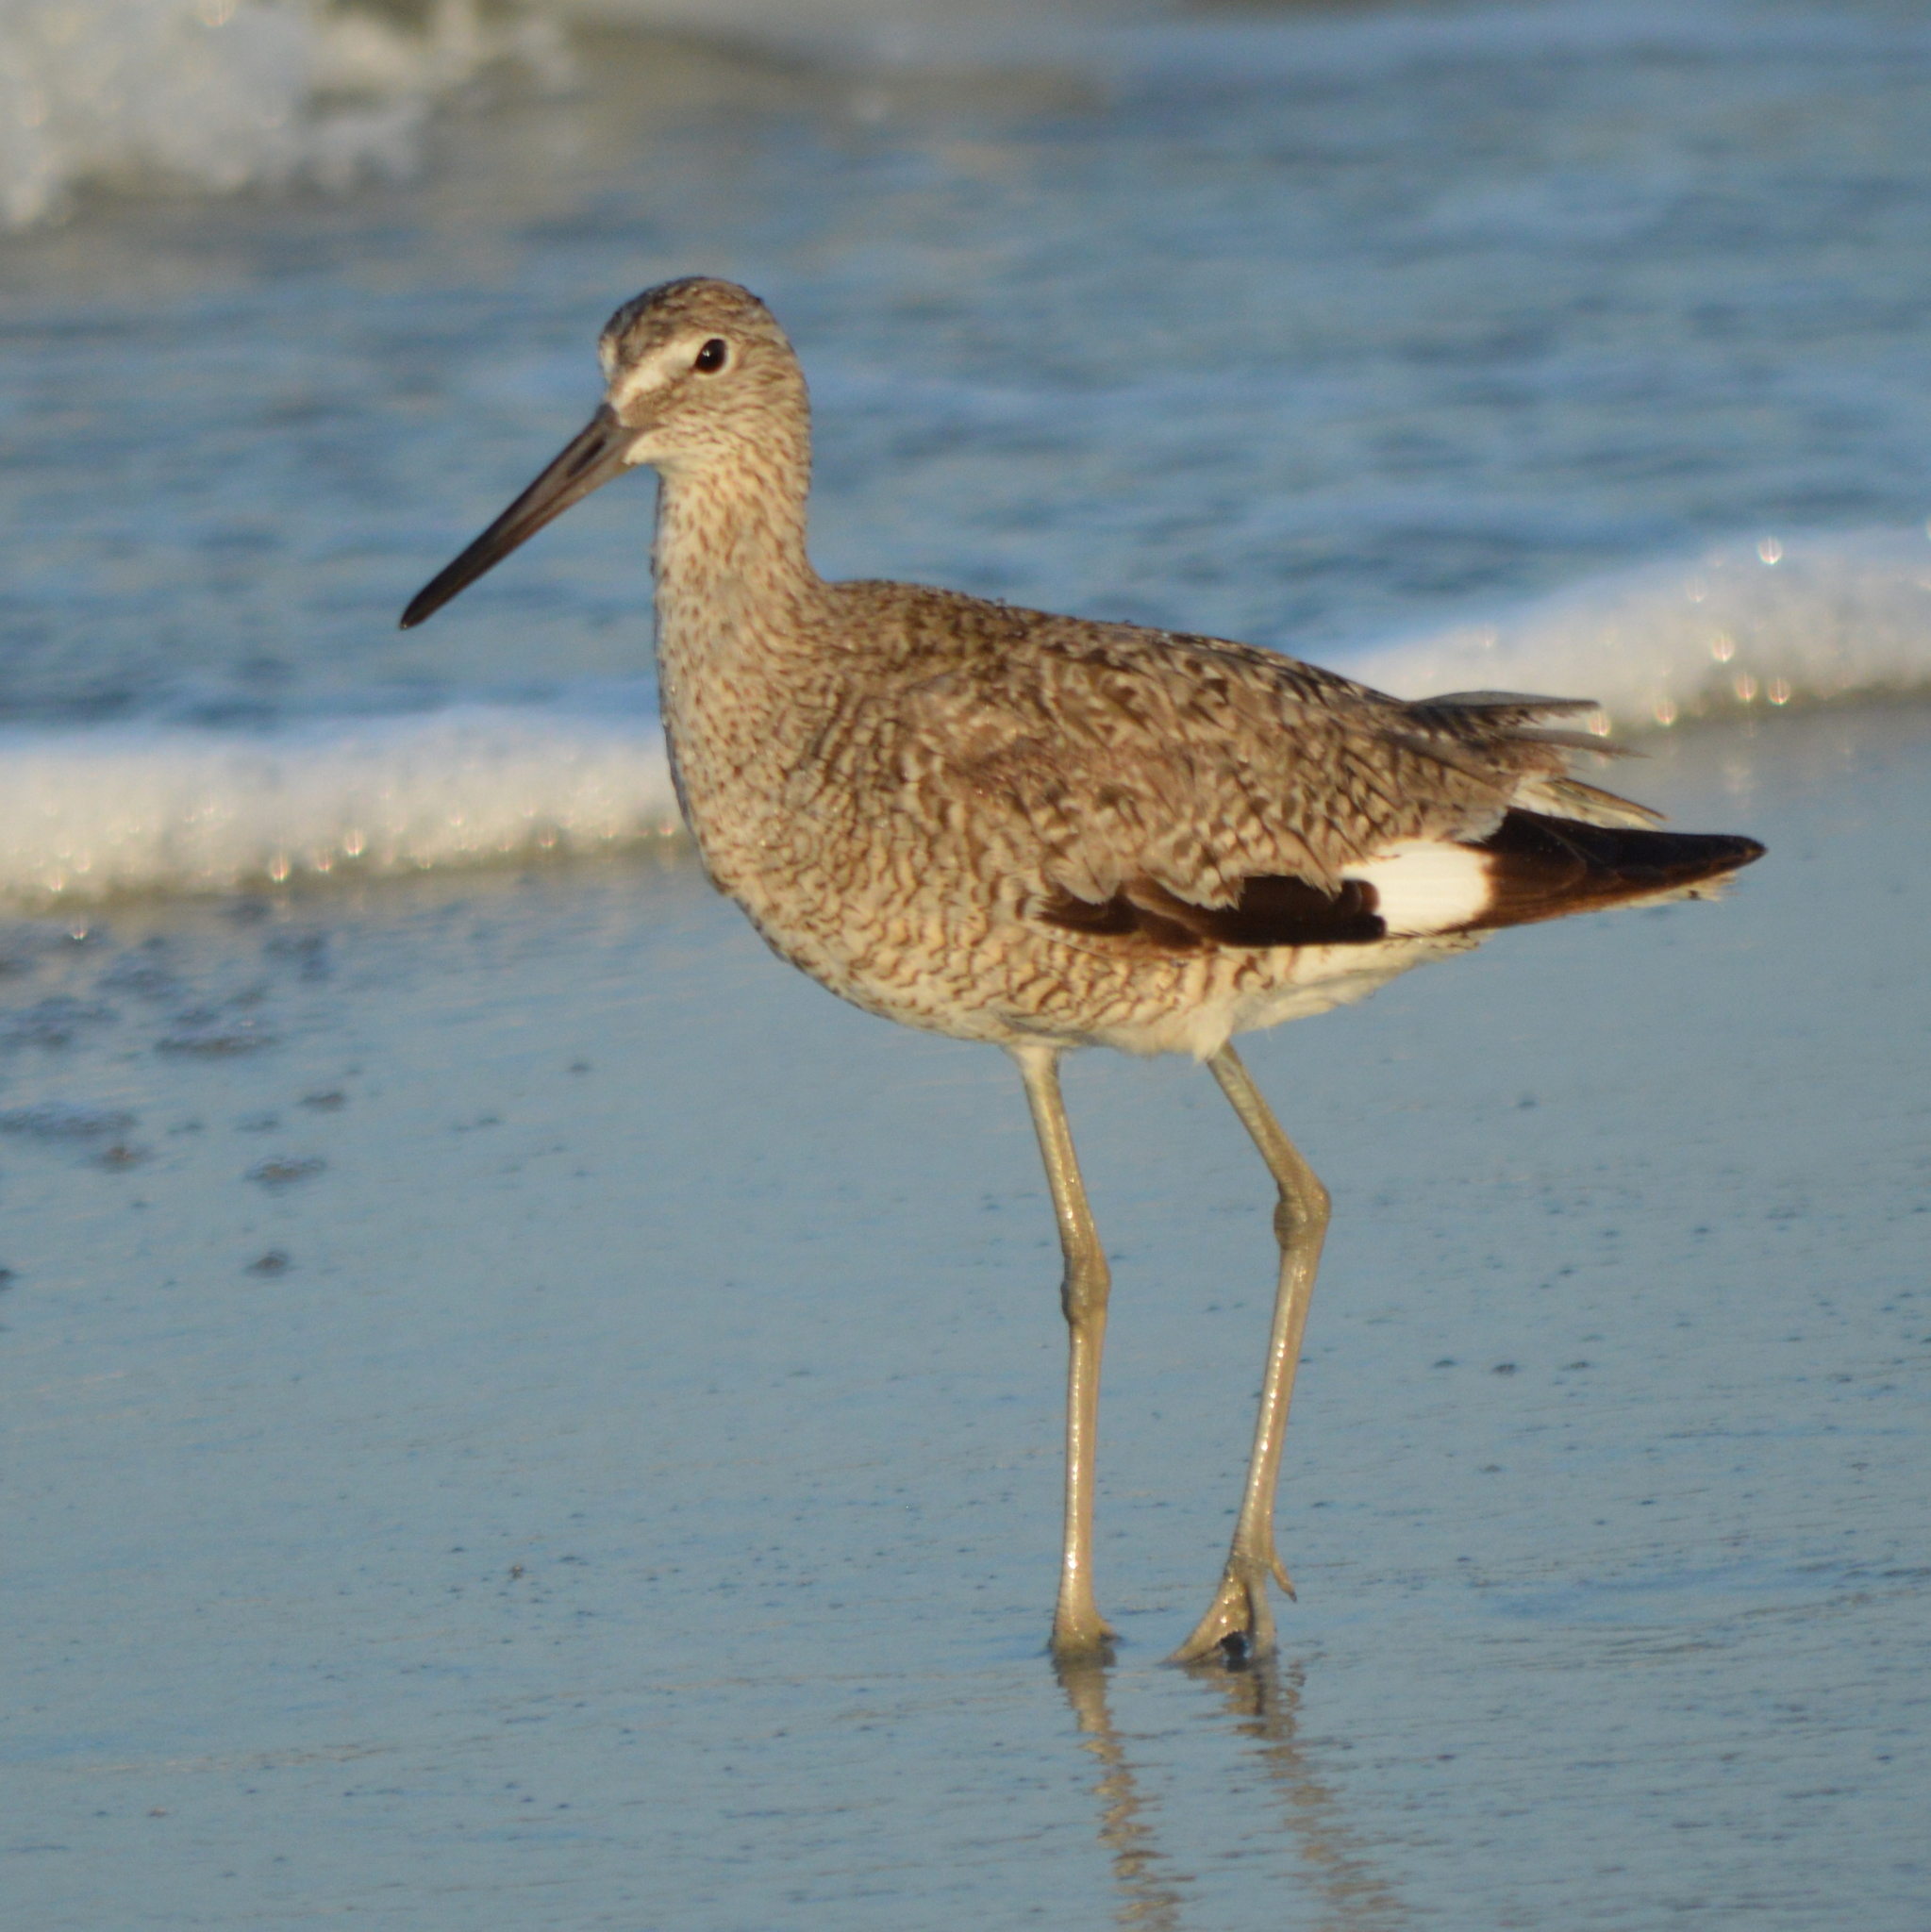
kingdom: Animalia
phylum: Chordata
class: Aves
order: Charadriiformes
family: Scolopacidae
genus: Tringa
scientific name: Tringa semipalmata
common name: Willet
